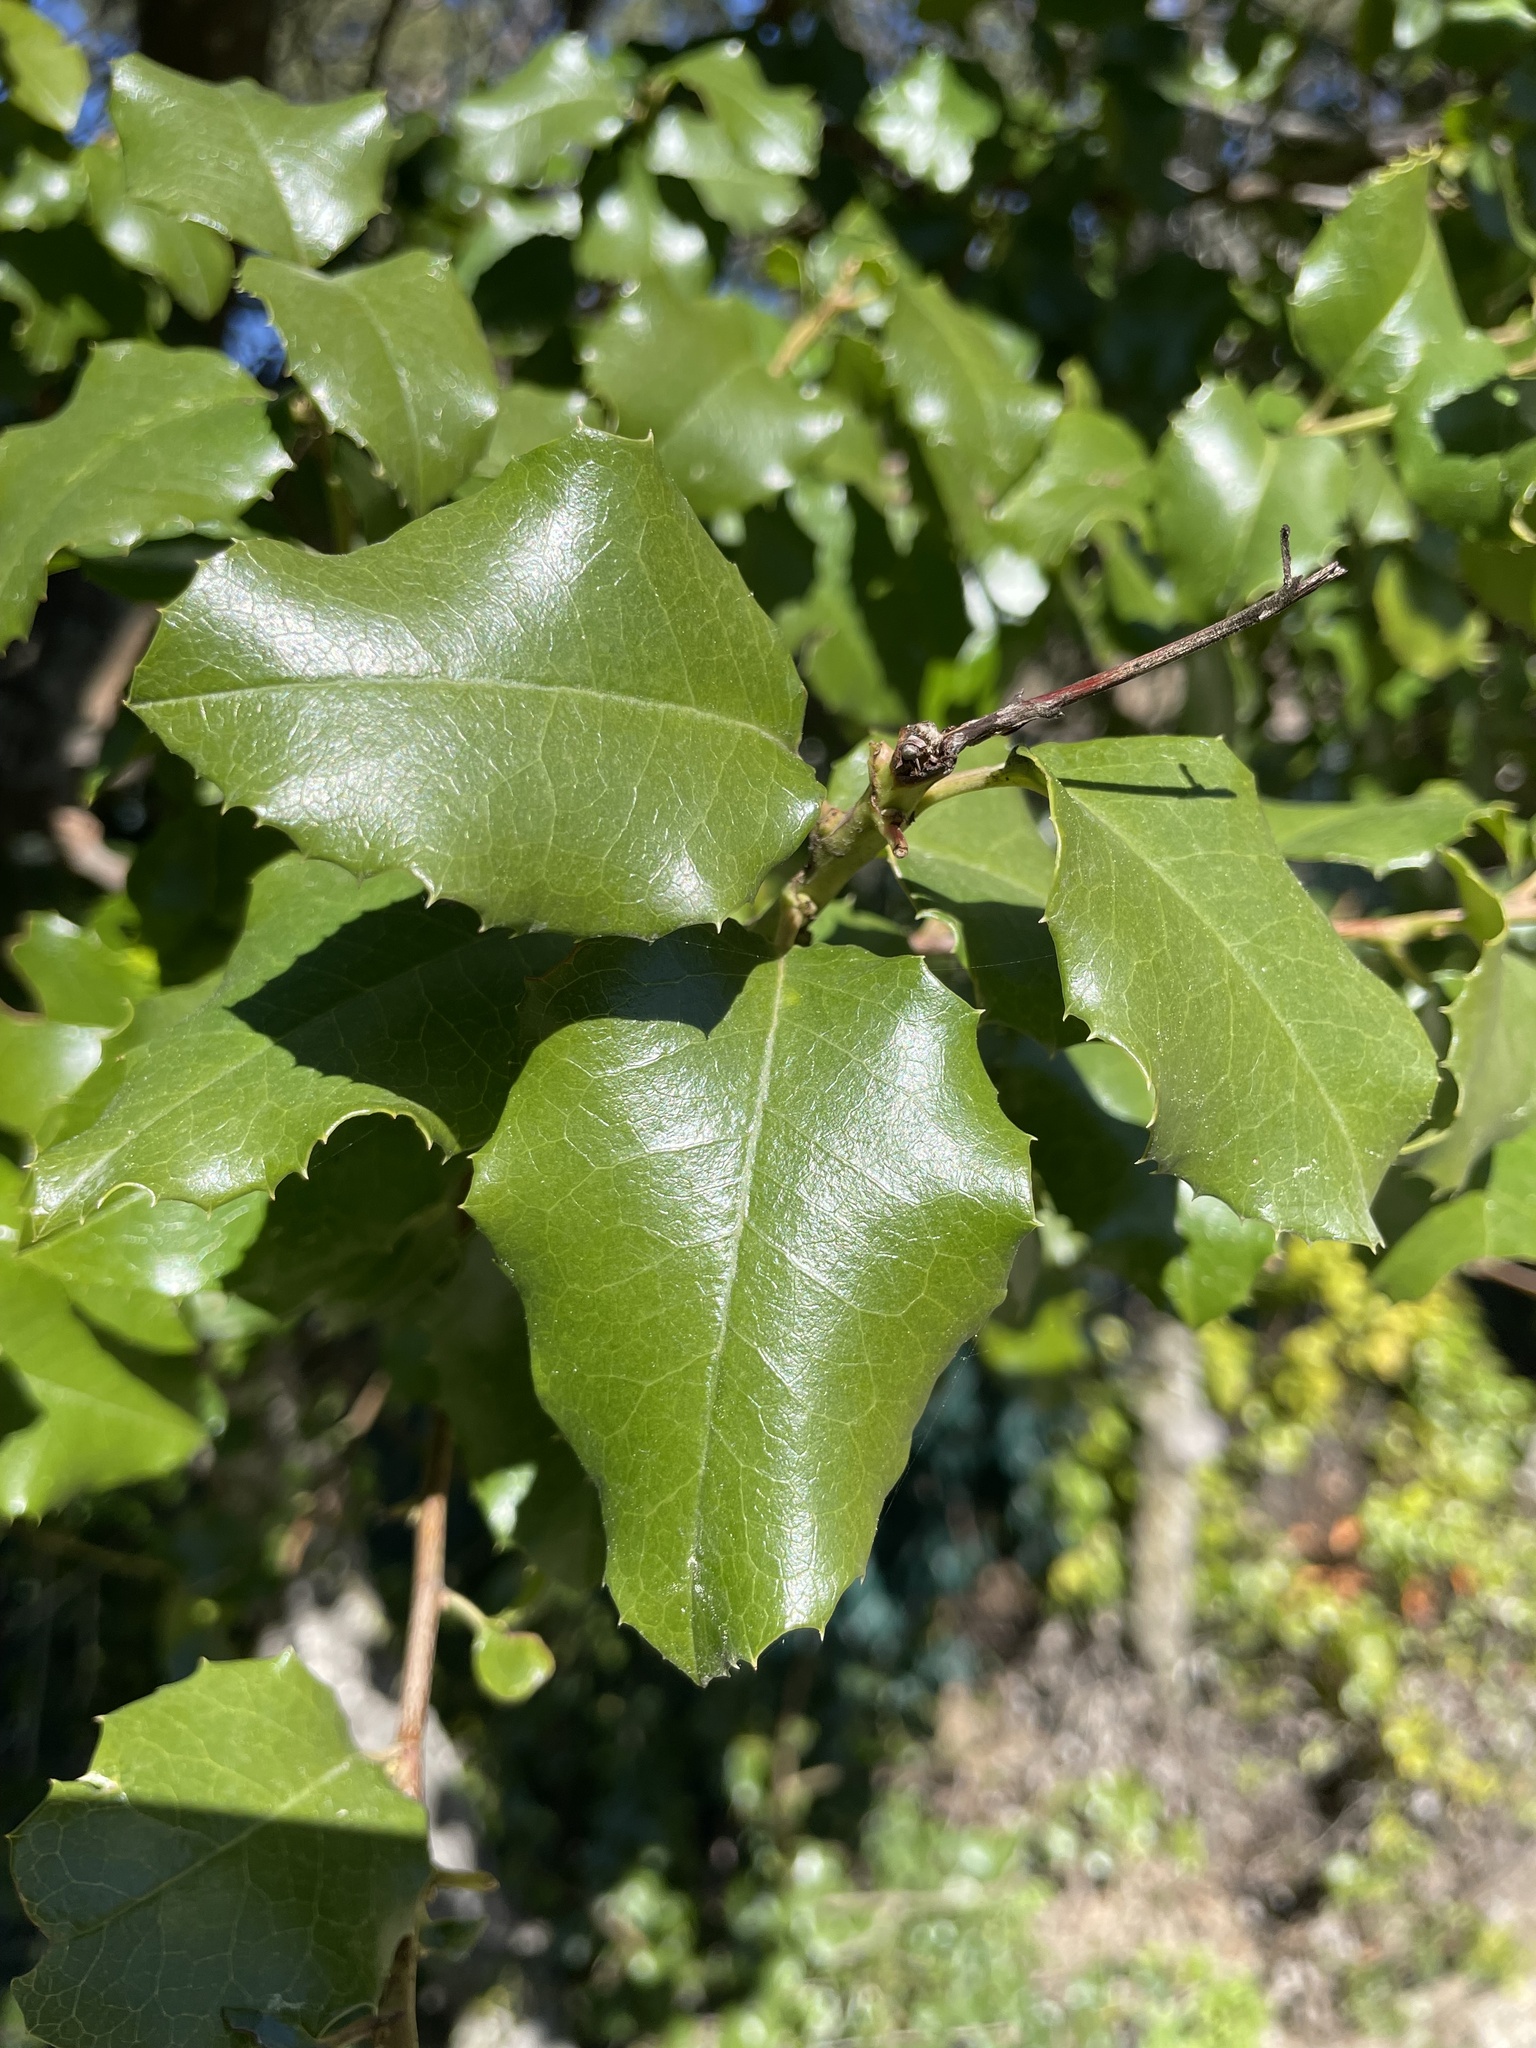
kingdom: Plantae
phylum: Tracheophyta
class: Magnoliopsida
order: Rosales
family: Rosaceae
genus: Prunus
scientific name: Prunus ilicifolia
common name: Hollyleaf cherry
